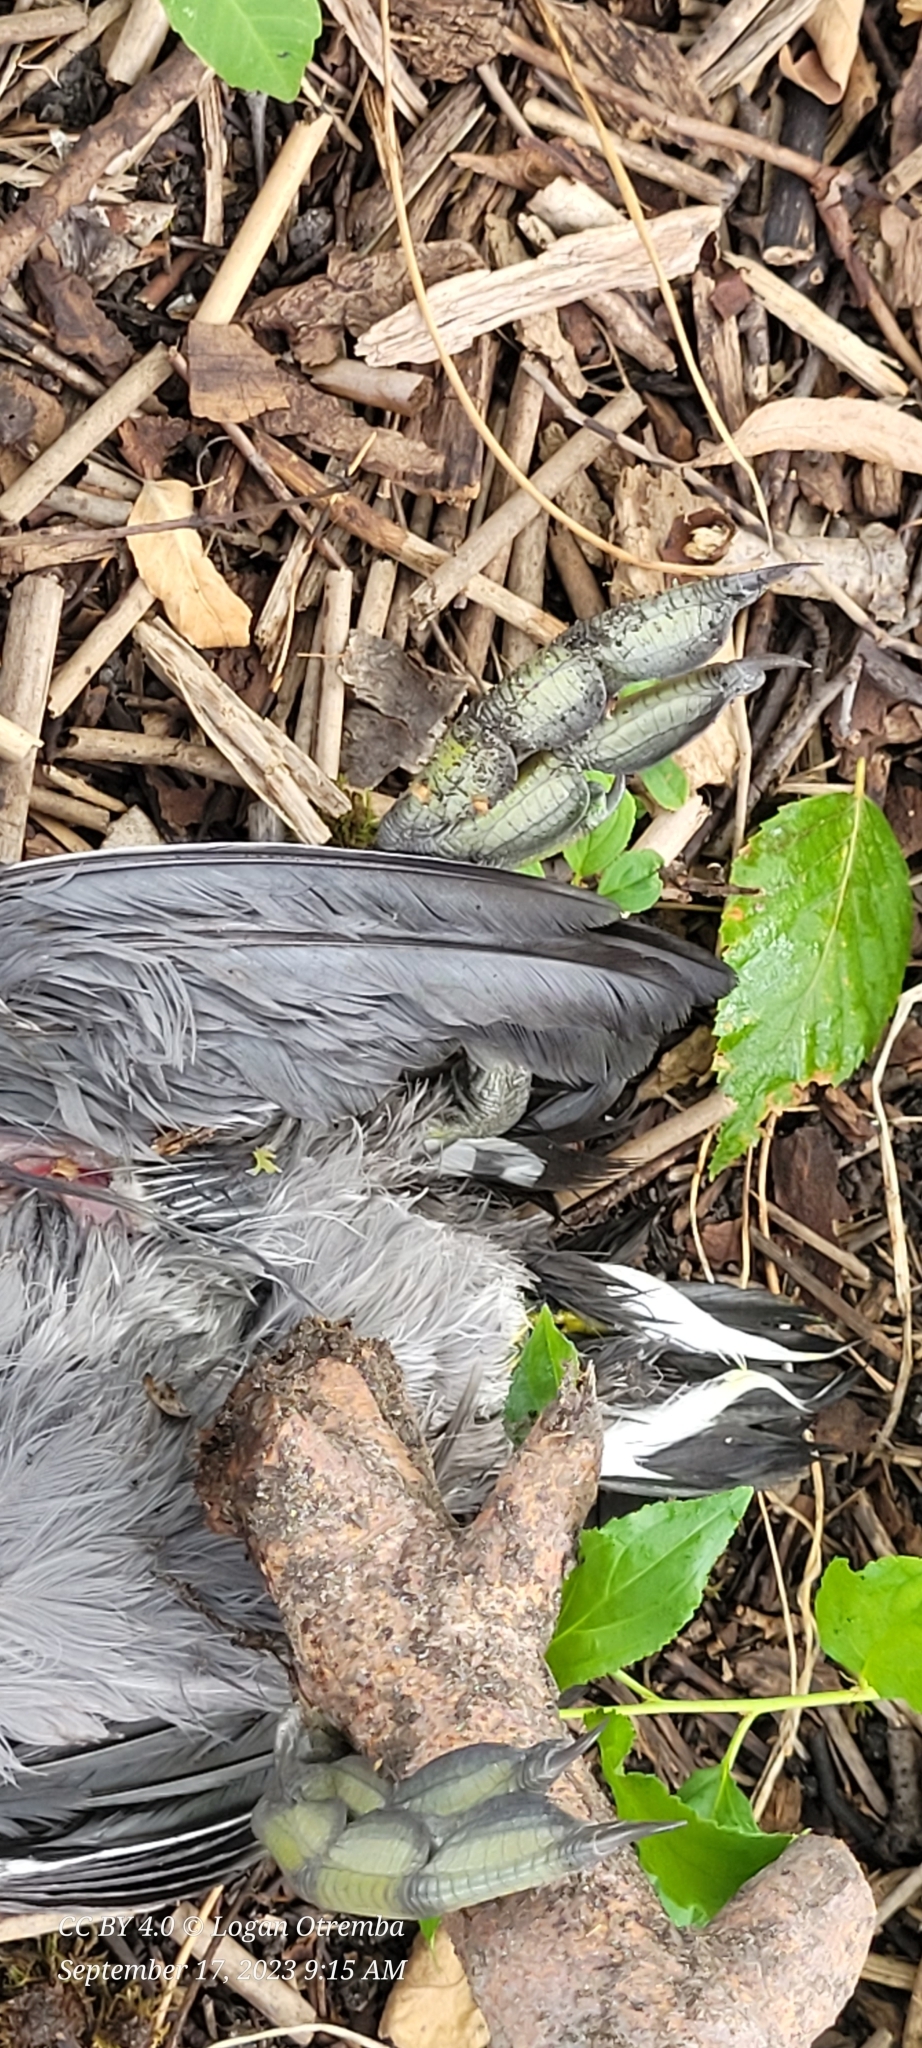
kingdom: Animalia
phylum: Chordata
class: Aves
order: Gruiformes
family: Rallidae
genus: Fulica
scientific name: Fulica americana
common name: American coot
